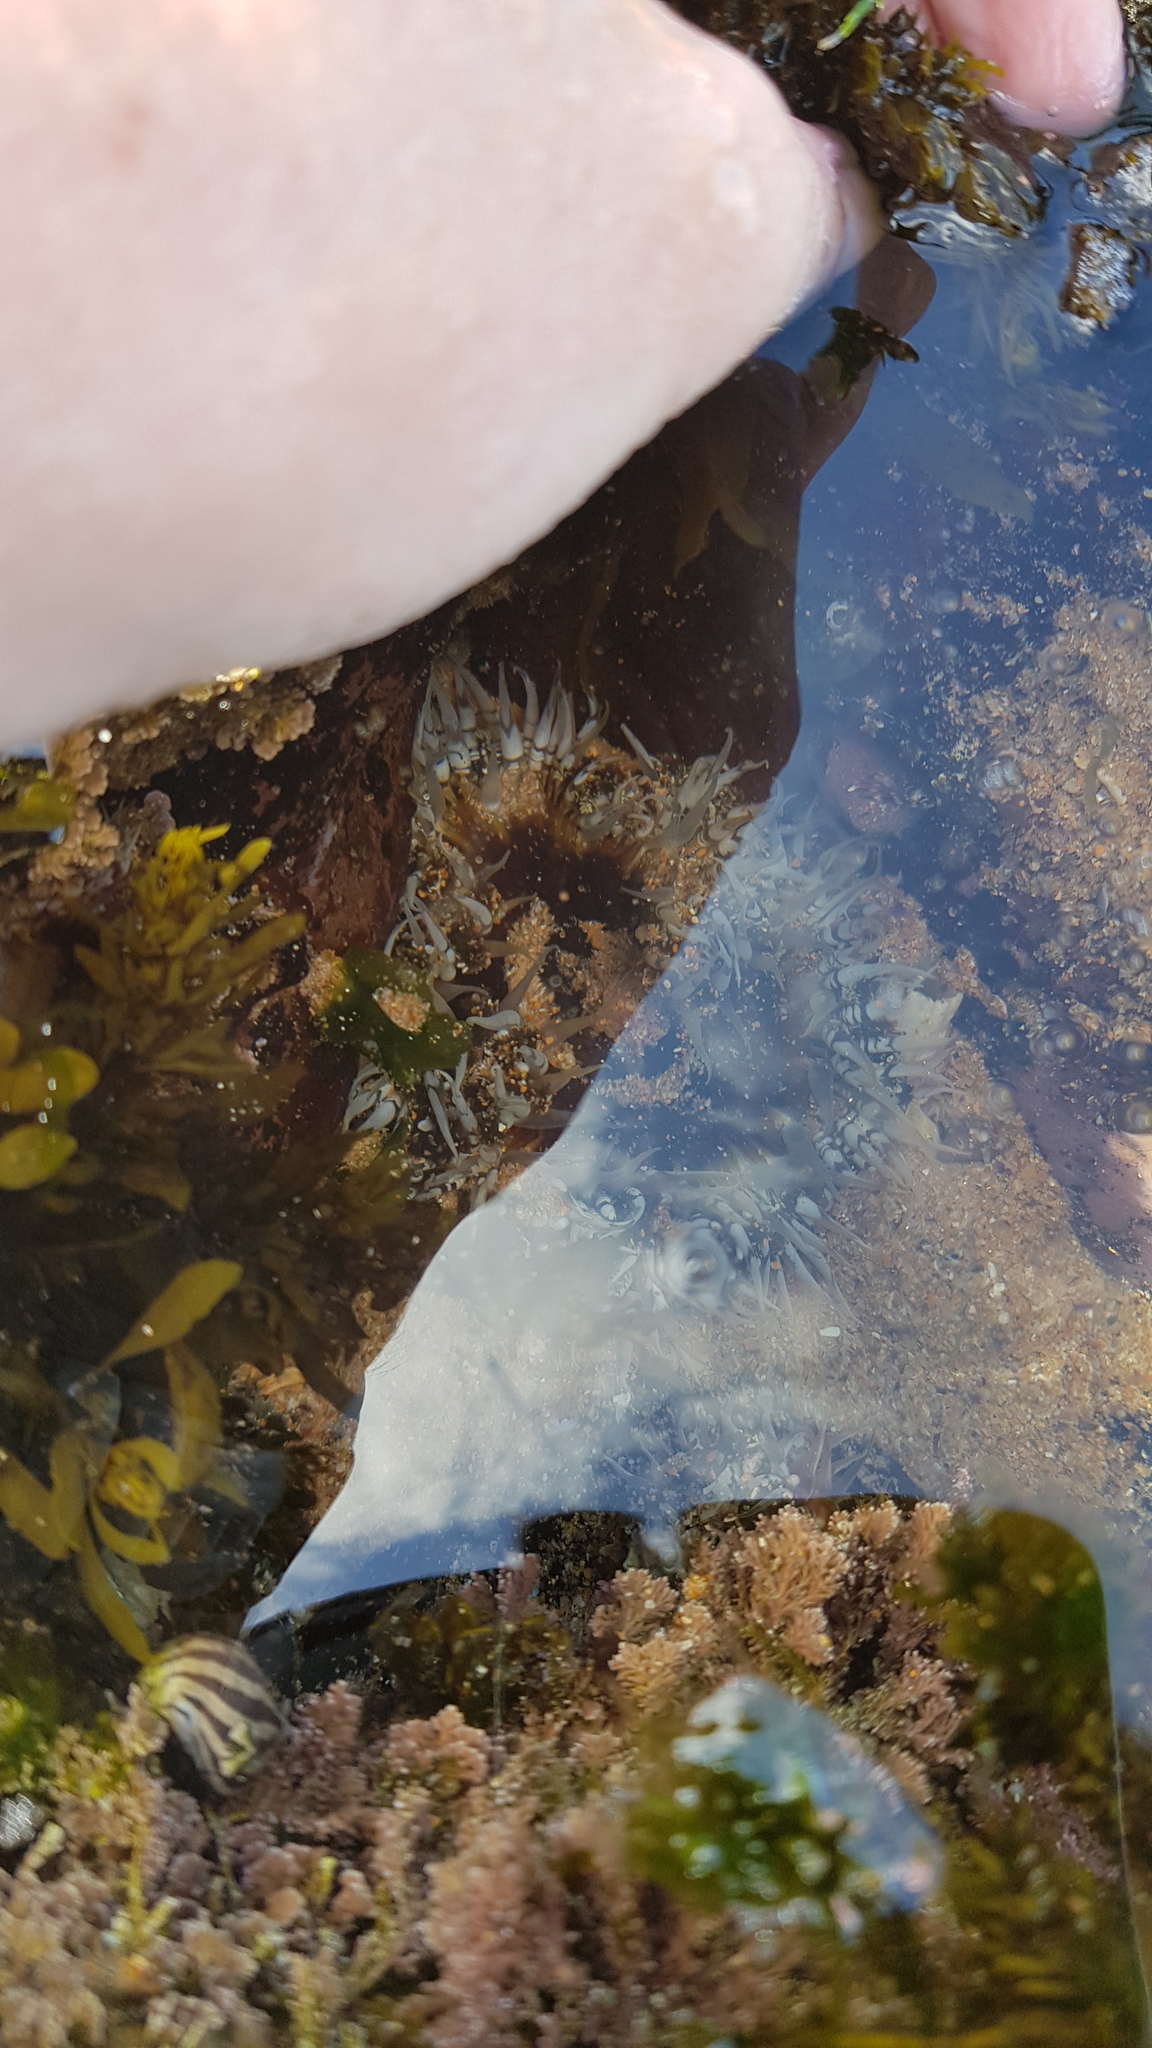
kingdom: Animalia
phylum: Cnidaria
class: Anthozoa
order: Actiniaria
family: Actiniidae
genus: Oulactis
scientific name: Oulactis muscosa
